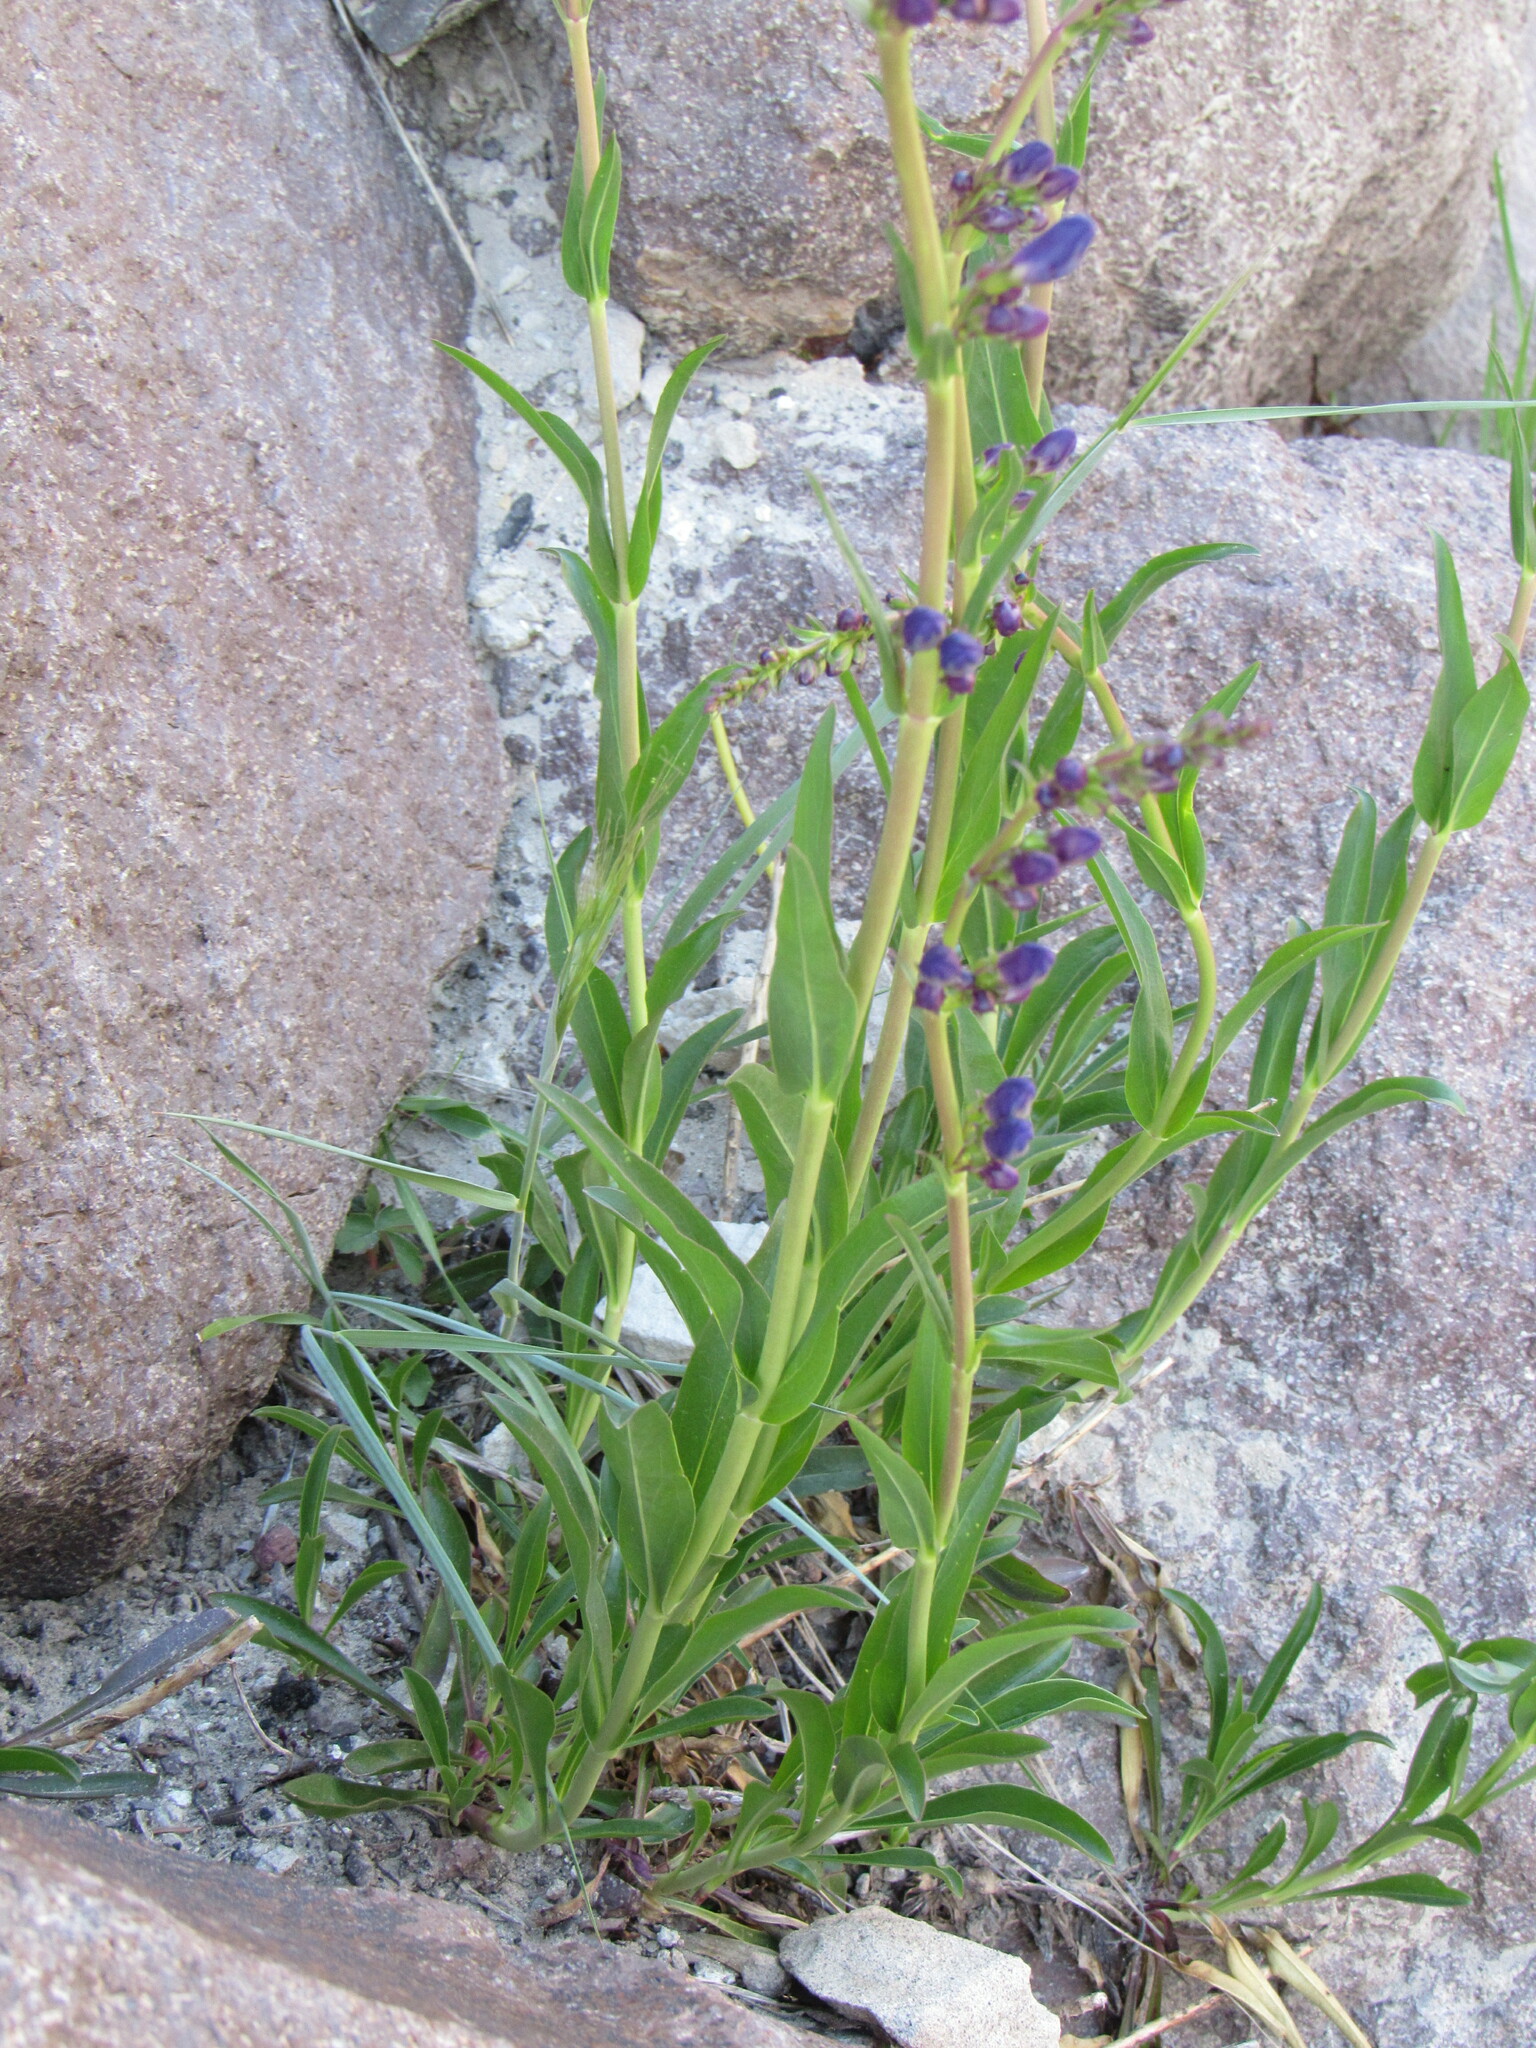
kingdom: Plantae
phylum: Tracheophyta
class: Magnoliopsida
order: Lamiales
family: Plantaginaceae
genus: Penstemon
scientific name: Penstemon strictus
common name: Rocky mountain penstemon
